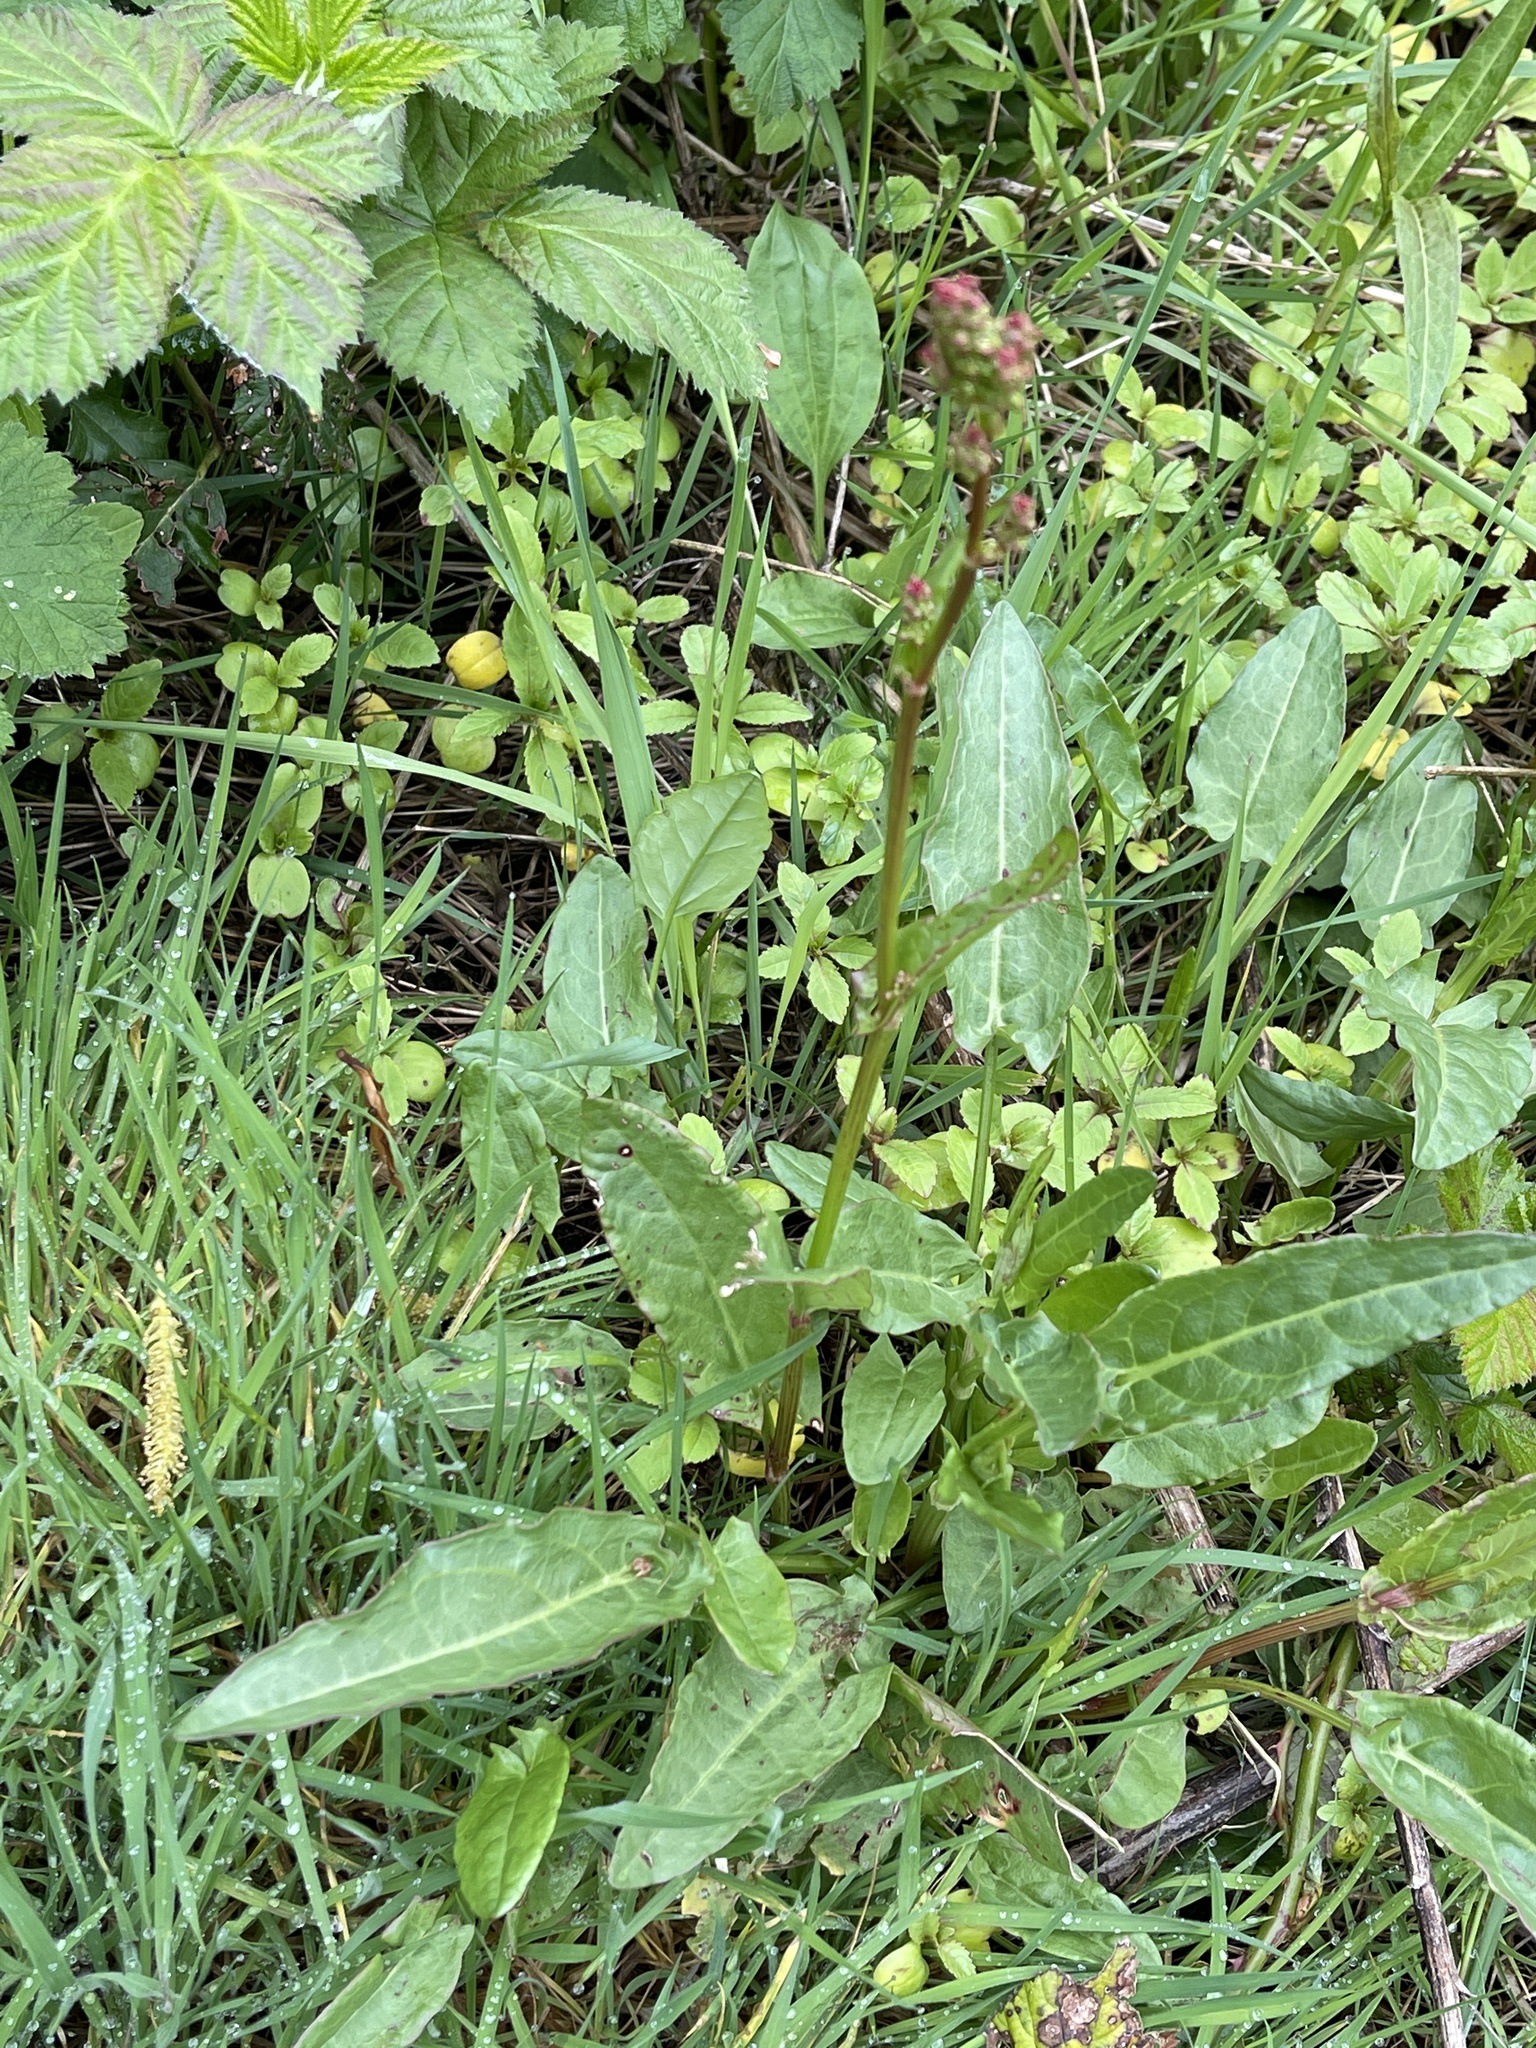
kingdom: Plantae
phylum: Tracheophyta
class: Magnoliopsida
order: Caryophyllales
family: Polygonaceae
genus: Rumex
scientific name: Rumex acetosa
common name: Garden sorrel
